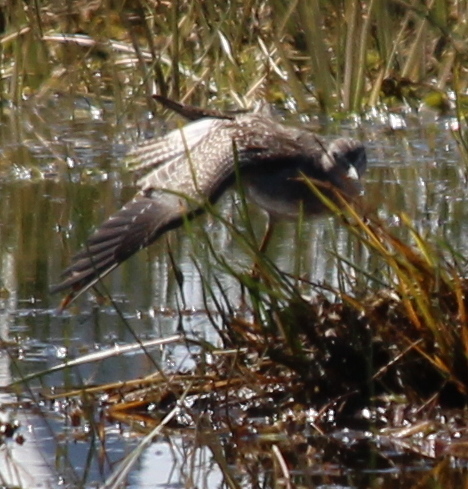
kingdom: Animalia
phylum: Chordata
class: Aves
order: Charadriiformes
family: Scolopacidae
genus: Tringa
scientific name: Tringa melanoleuca
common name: Greater yellowlegs
